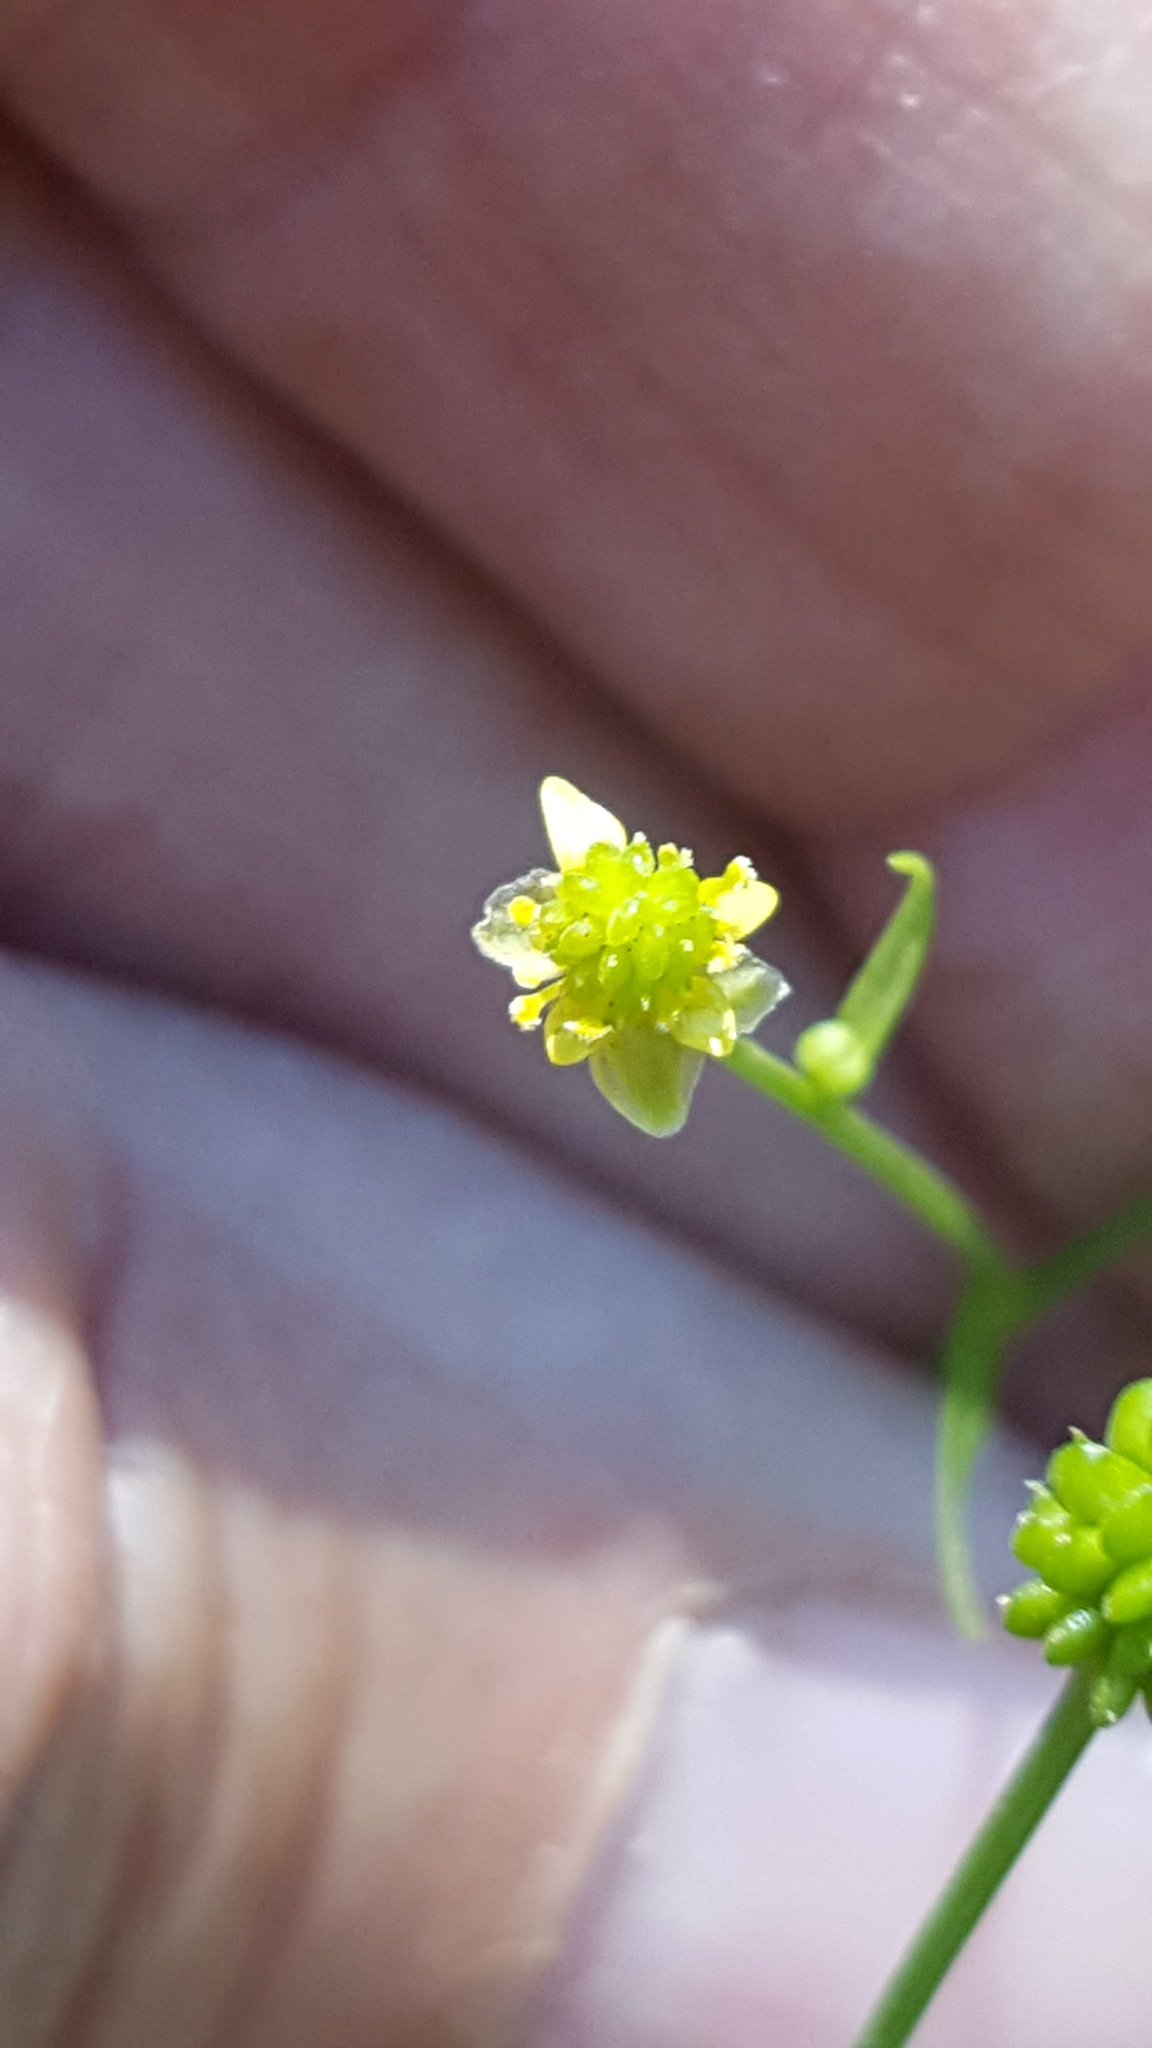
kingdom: Plantae
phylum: Tracheophyta
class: Magnoliopsida
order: Ranunculales
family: Ranunculaceae
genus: Ranunculus
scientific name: Ranunculus abortivus
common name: Early wood buttercup
